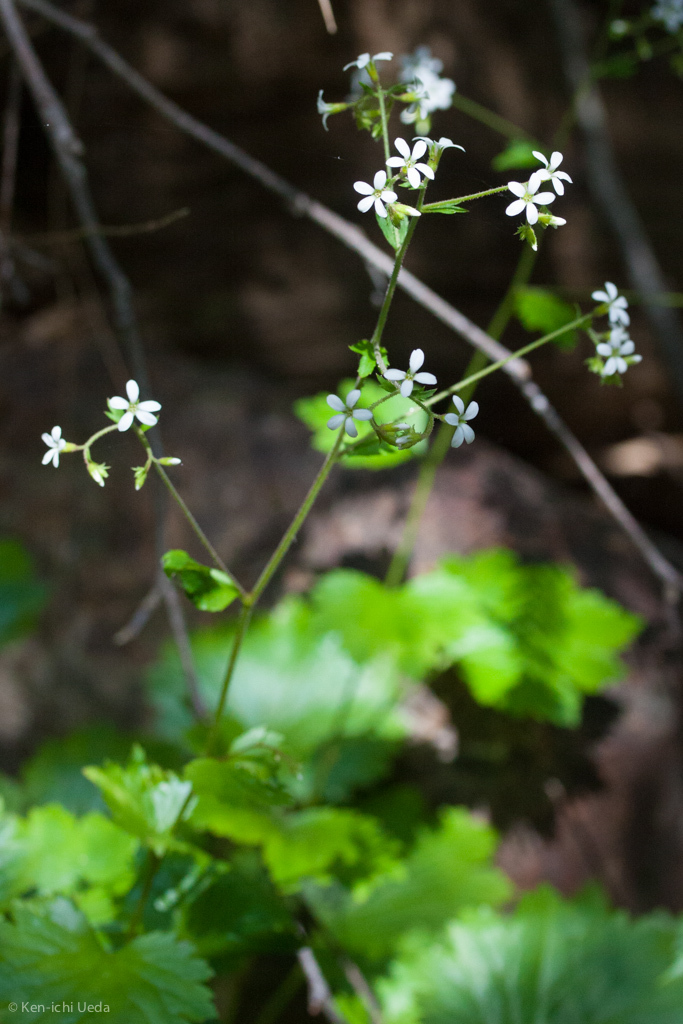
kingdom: Plantae
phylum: Tracheophyta
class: Magnoliopsida
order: Saxifragales
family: Saxifragaceae
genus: Boykinia
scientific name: Boykinia occidentalis
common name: Coast boykinia
